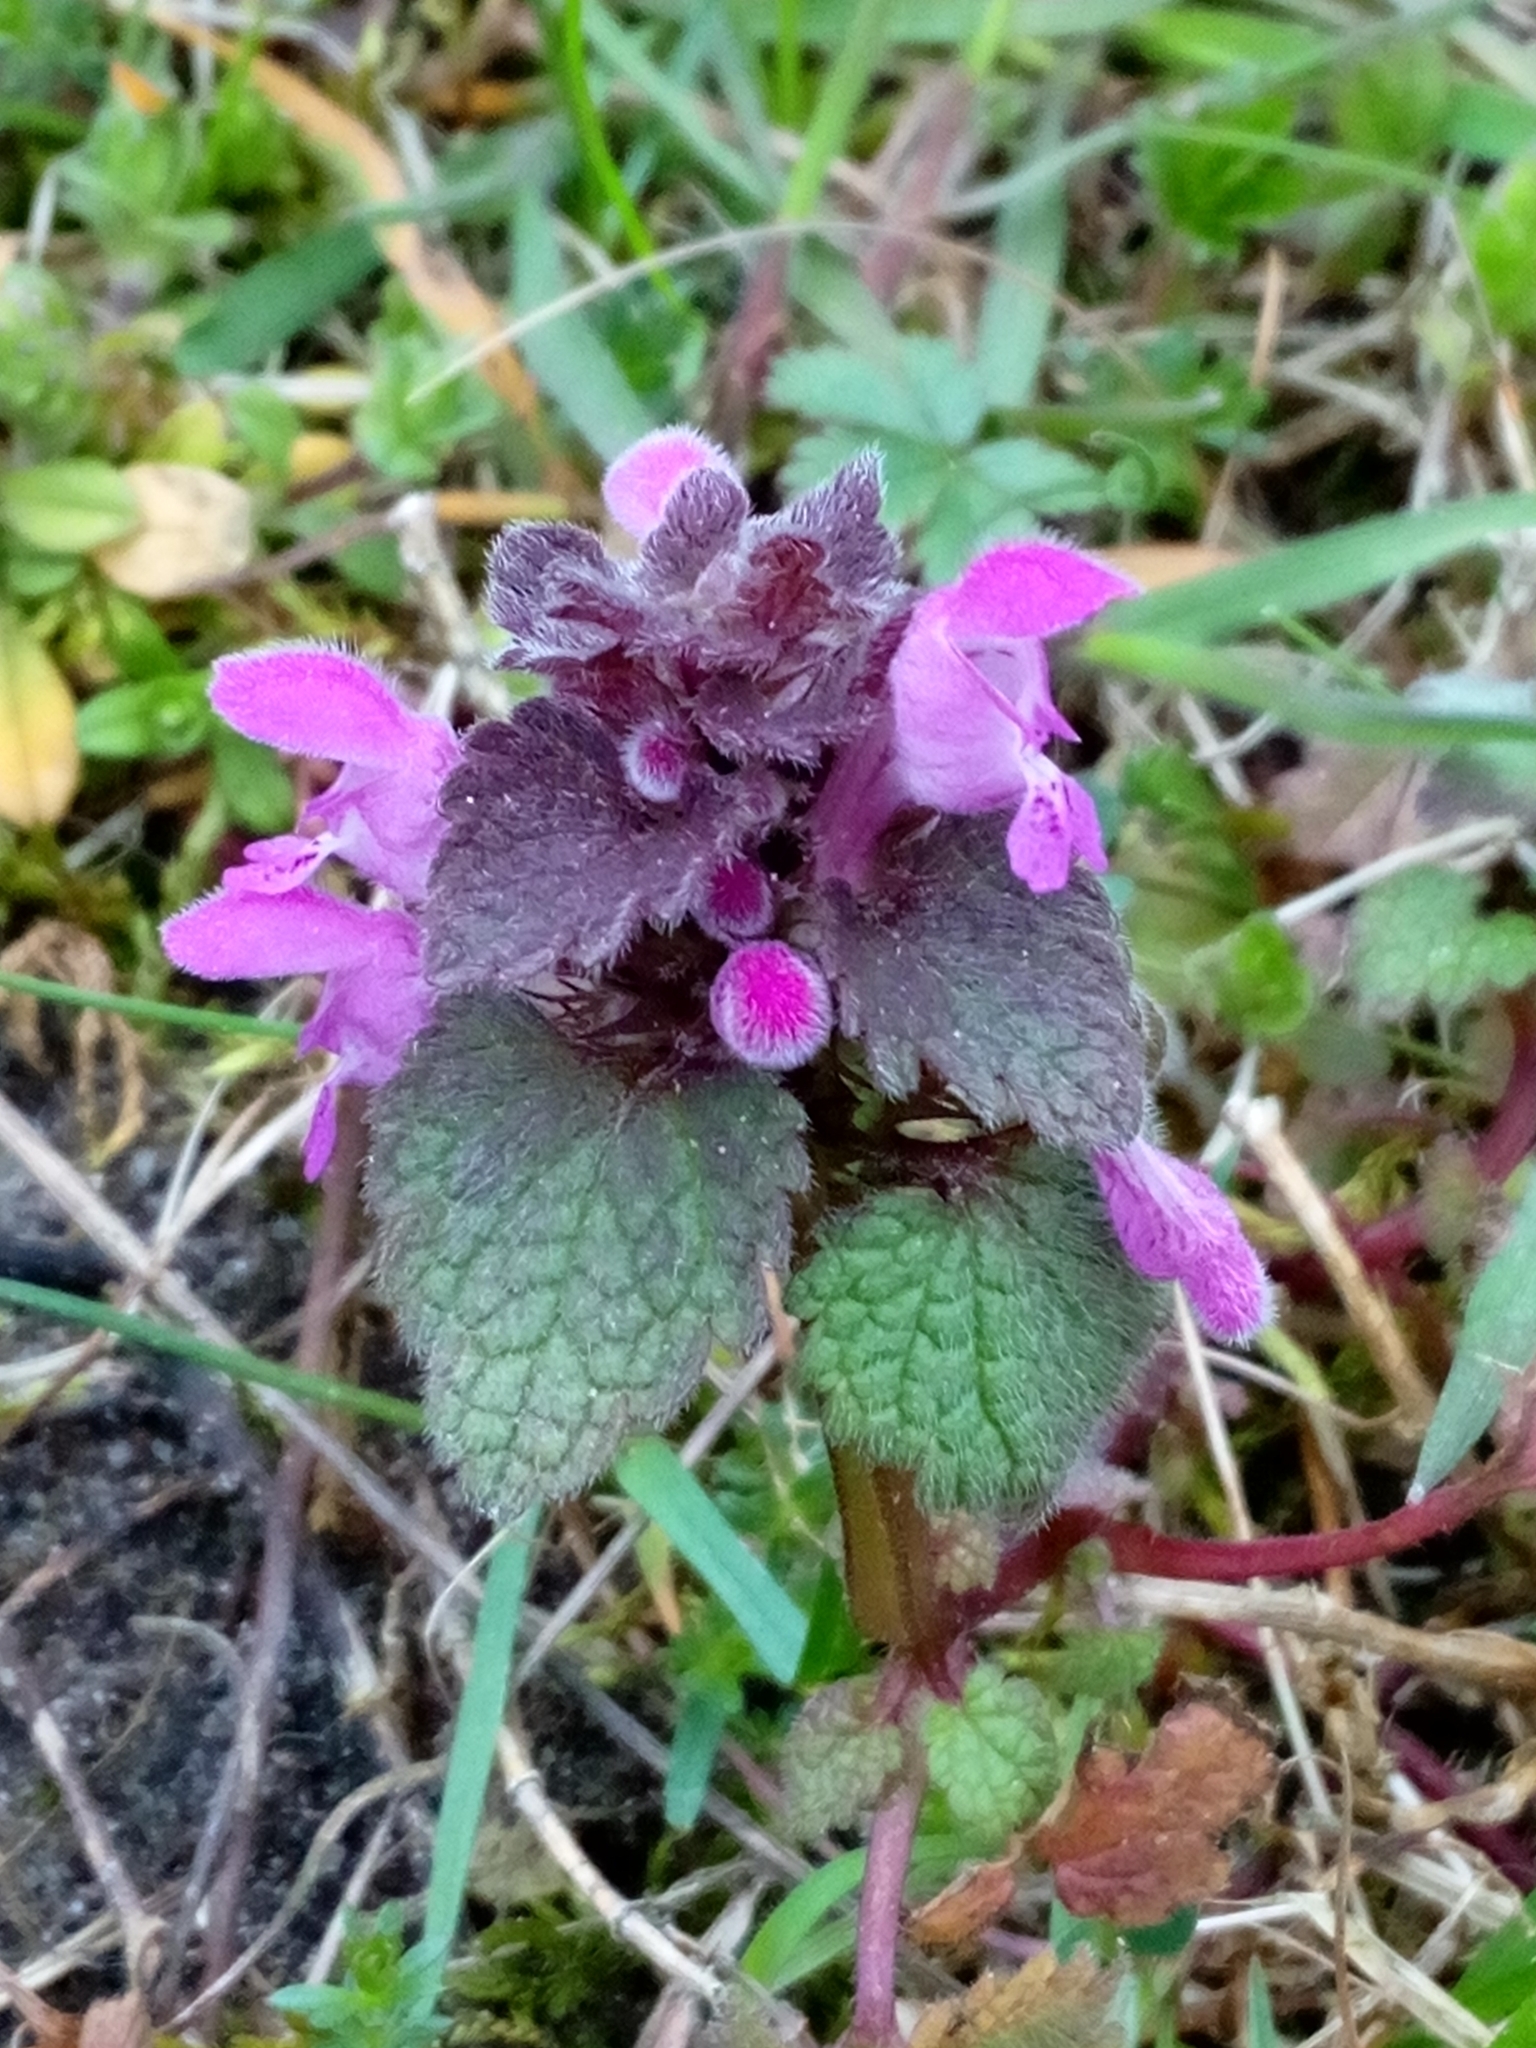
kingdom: Plantae
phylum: Tracheophyta
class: Magnoliopsida
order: Lamiales
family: Lamiaceae
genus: Lamium
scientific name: Lamium purpureum
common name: Red dead-nettle
